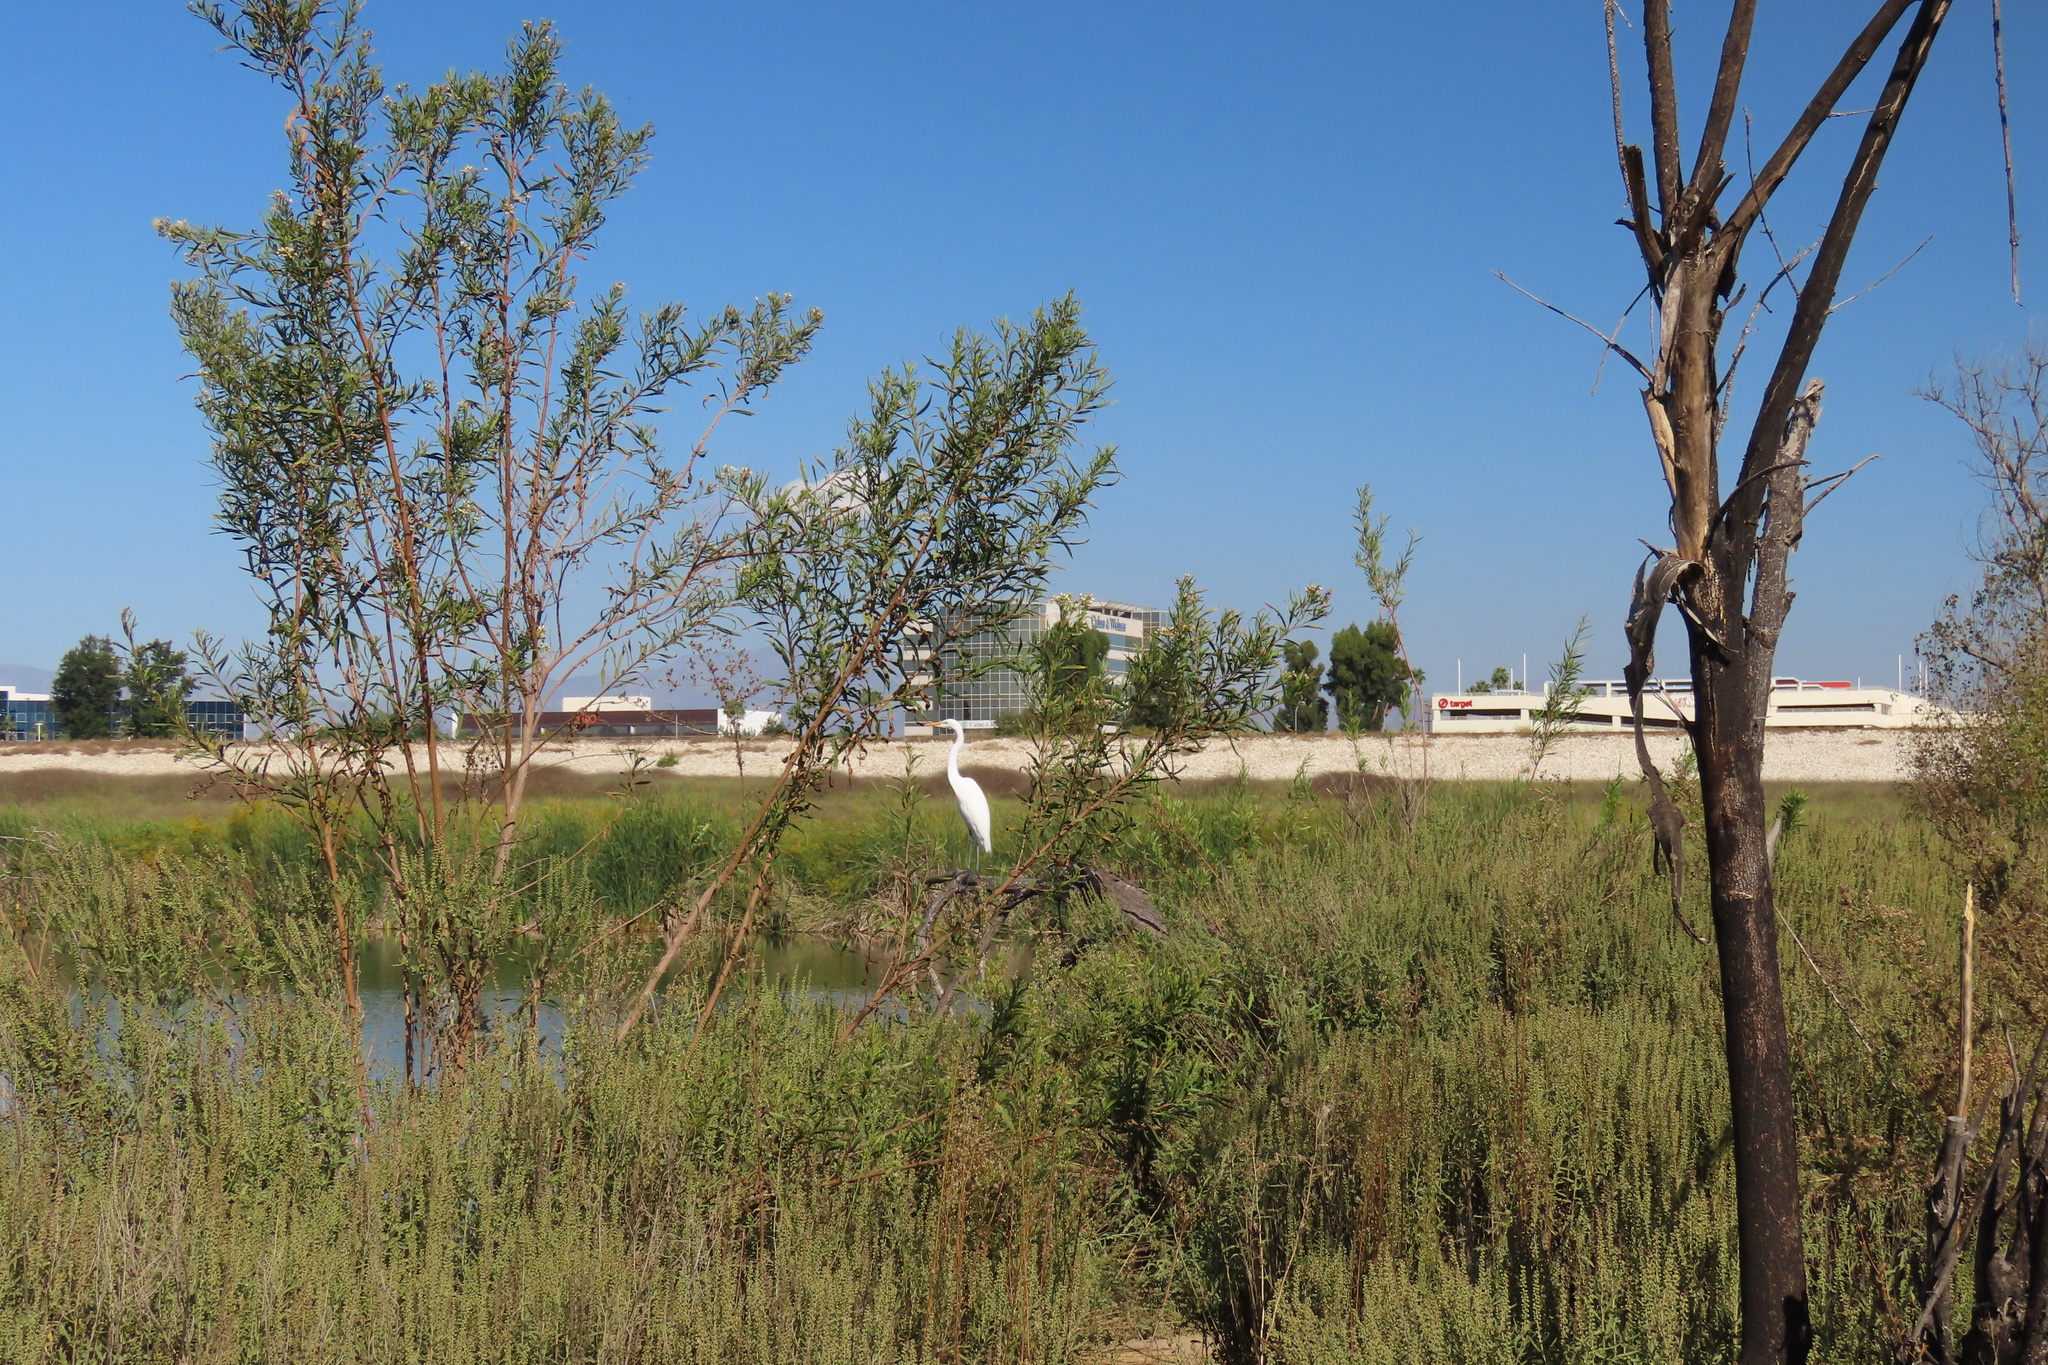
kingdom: Animalia
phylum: Chordata
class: Aves
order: Pelecaniformes
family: Ardeidae
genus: Ardea
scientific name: Ardea alba
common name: Great egret
